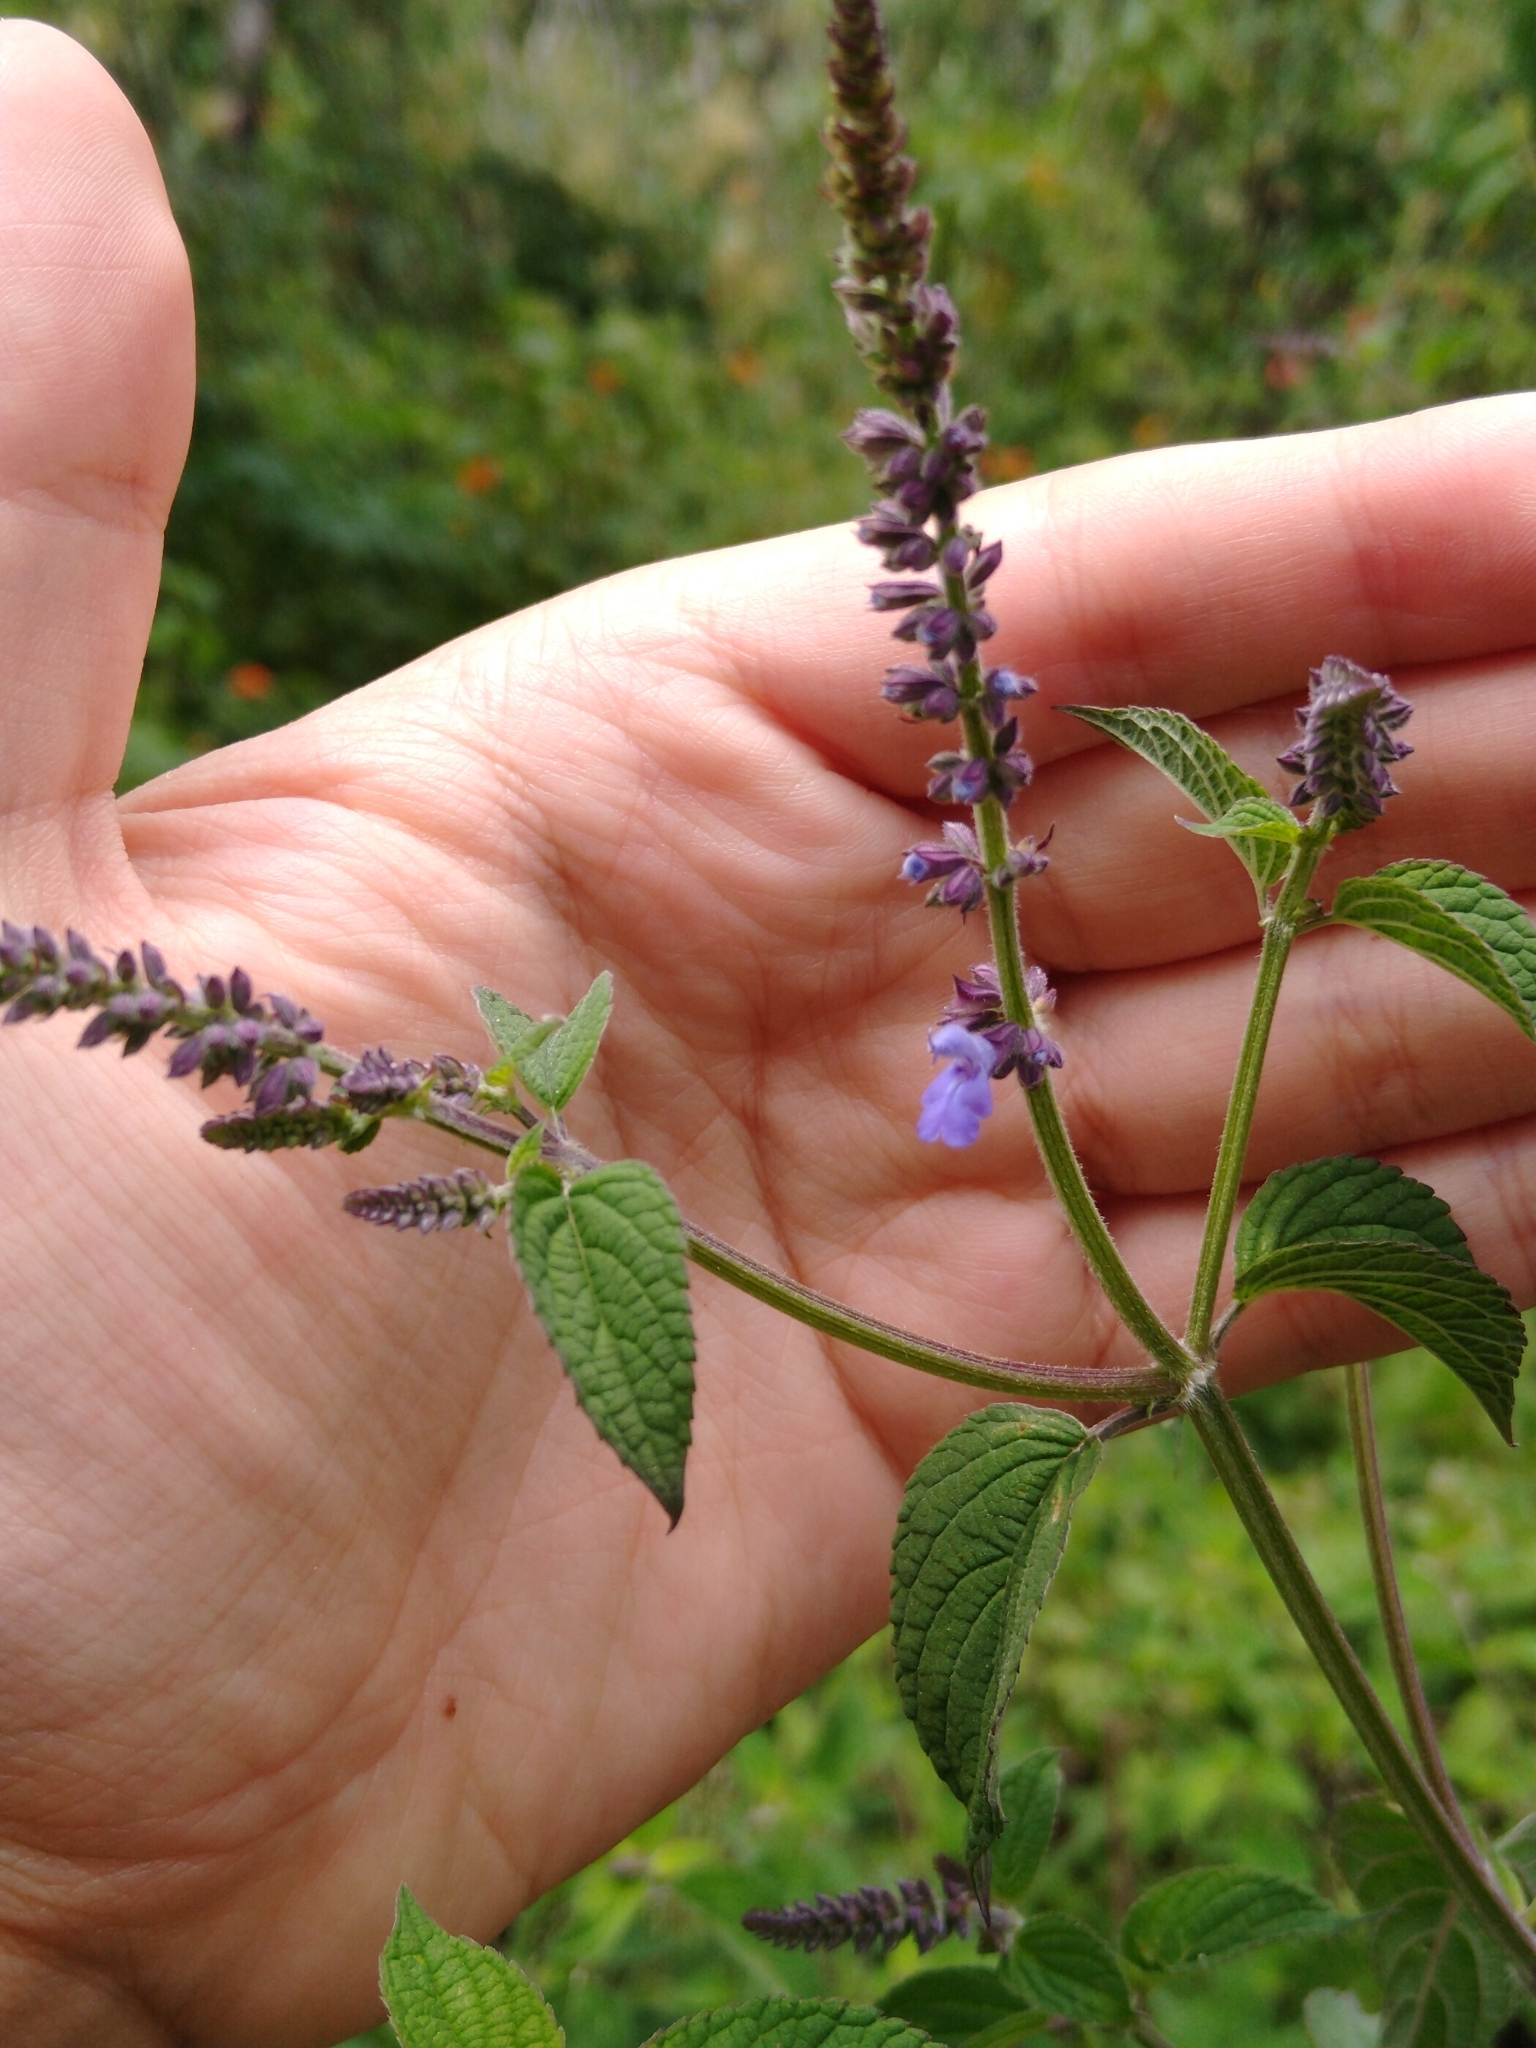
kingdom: Plantae
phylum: Tracheophyta
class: Magnoliopsida
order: Lamiales
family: Lamiaceae
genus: Salvia
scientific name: Salvia polystachia
